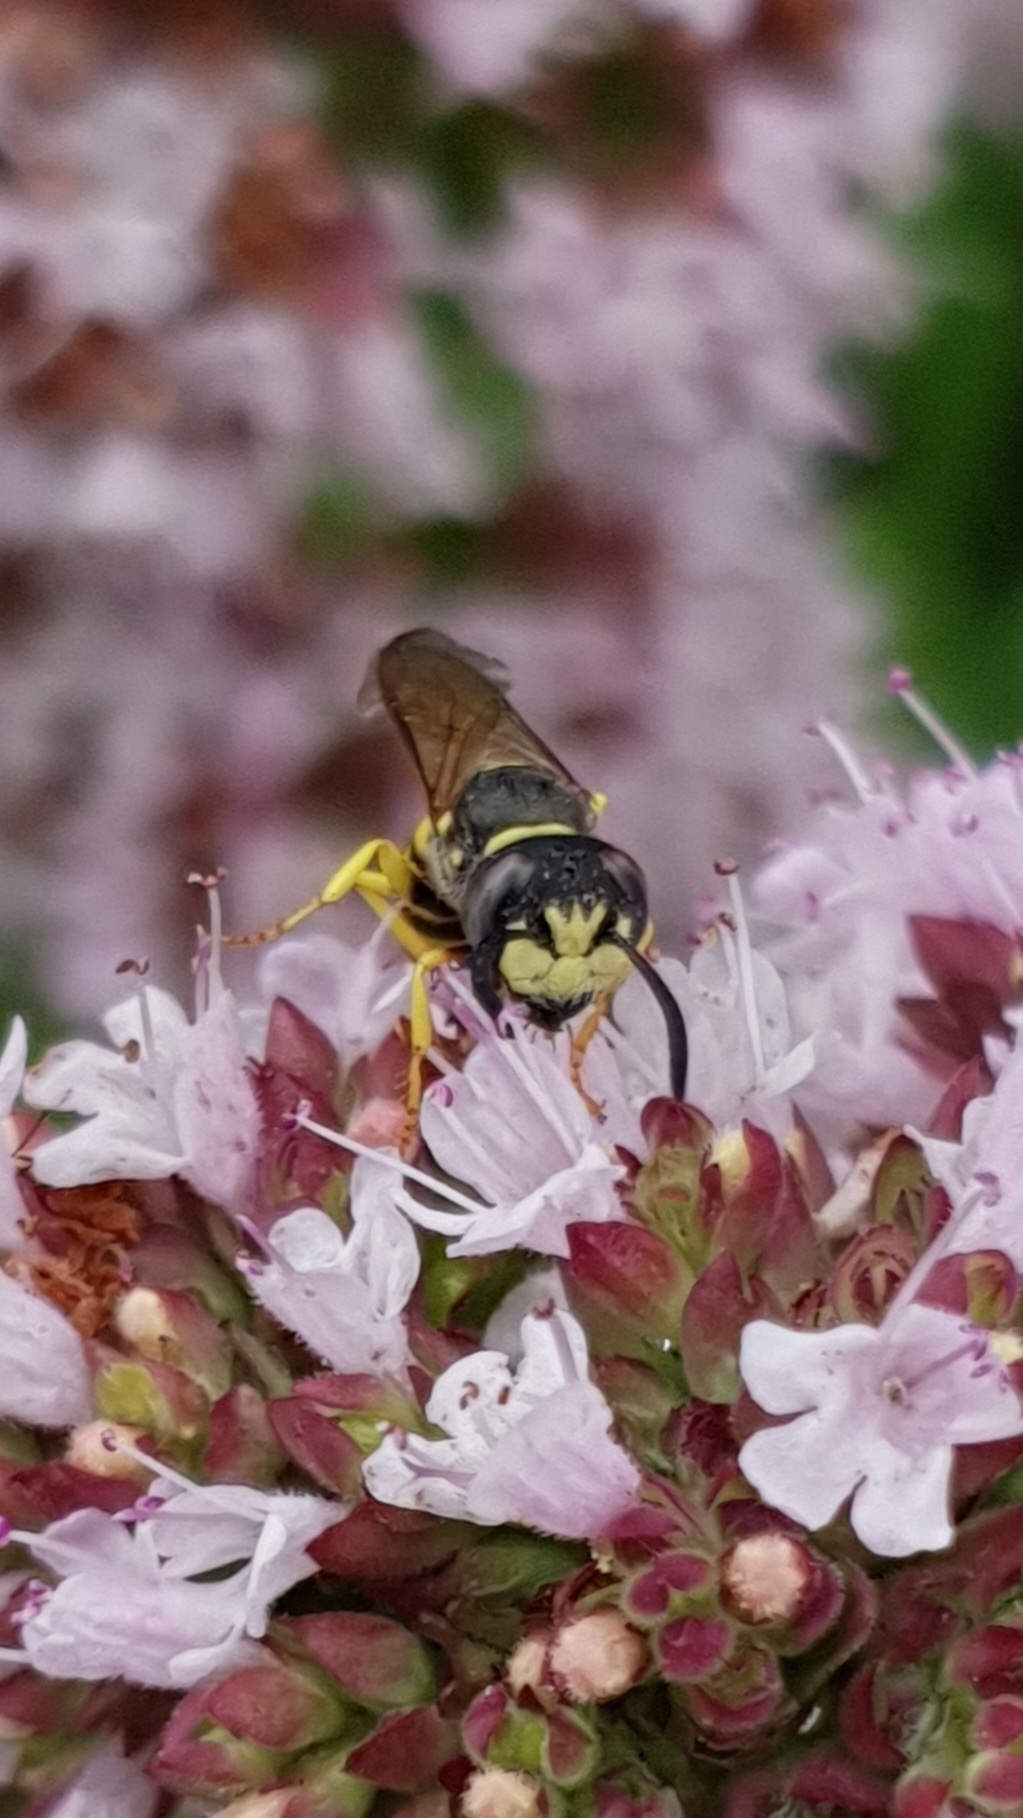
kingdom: Animalia
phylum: Arthropoda
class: Insecta
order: Hymenoptera
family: Crabronidae
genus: Philanthus
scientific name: Philanthus triangulum
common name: Bee wolf
